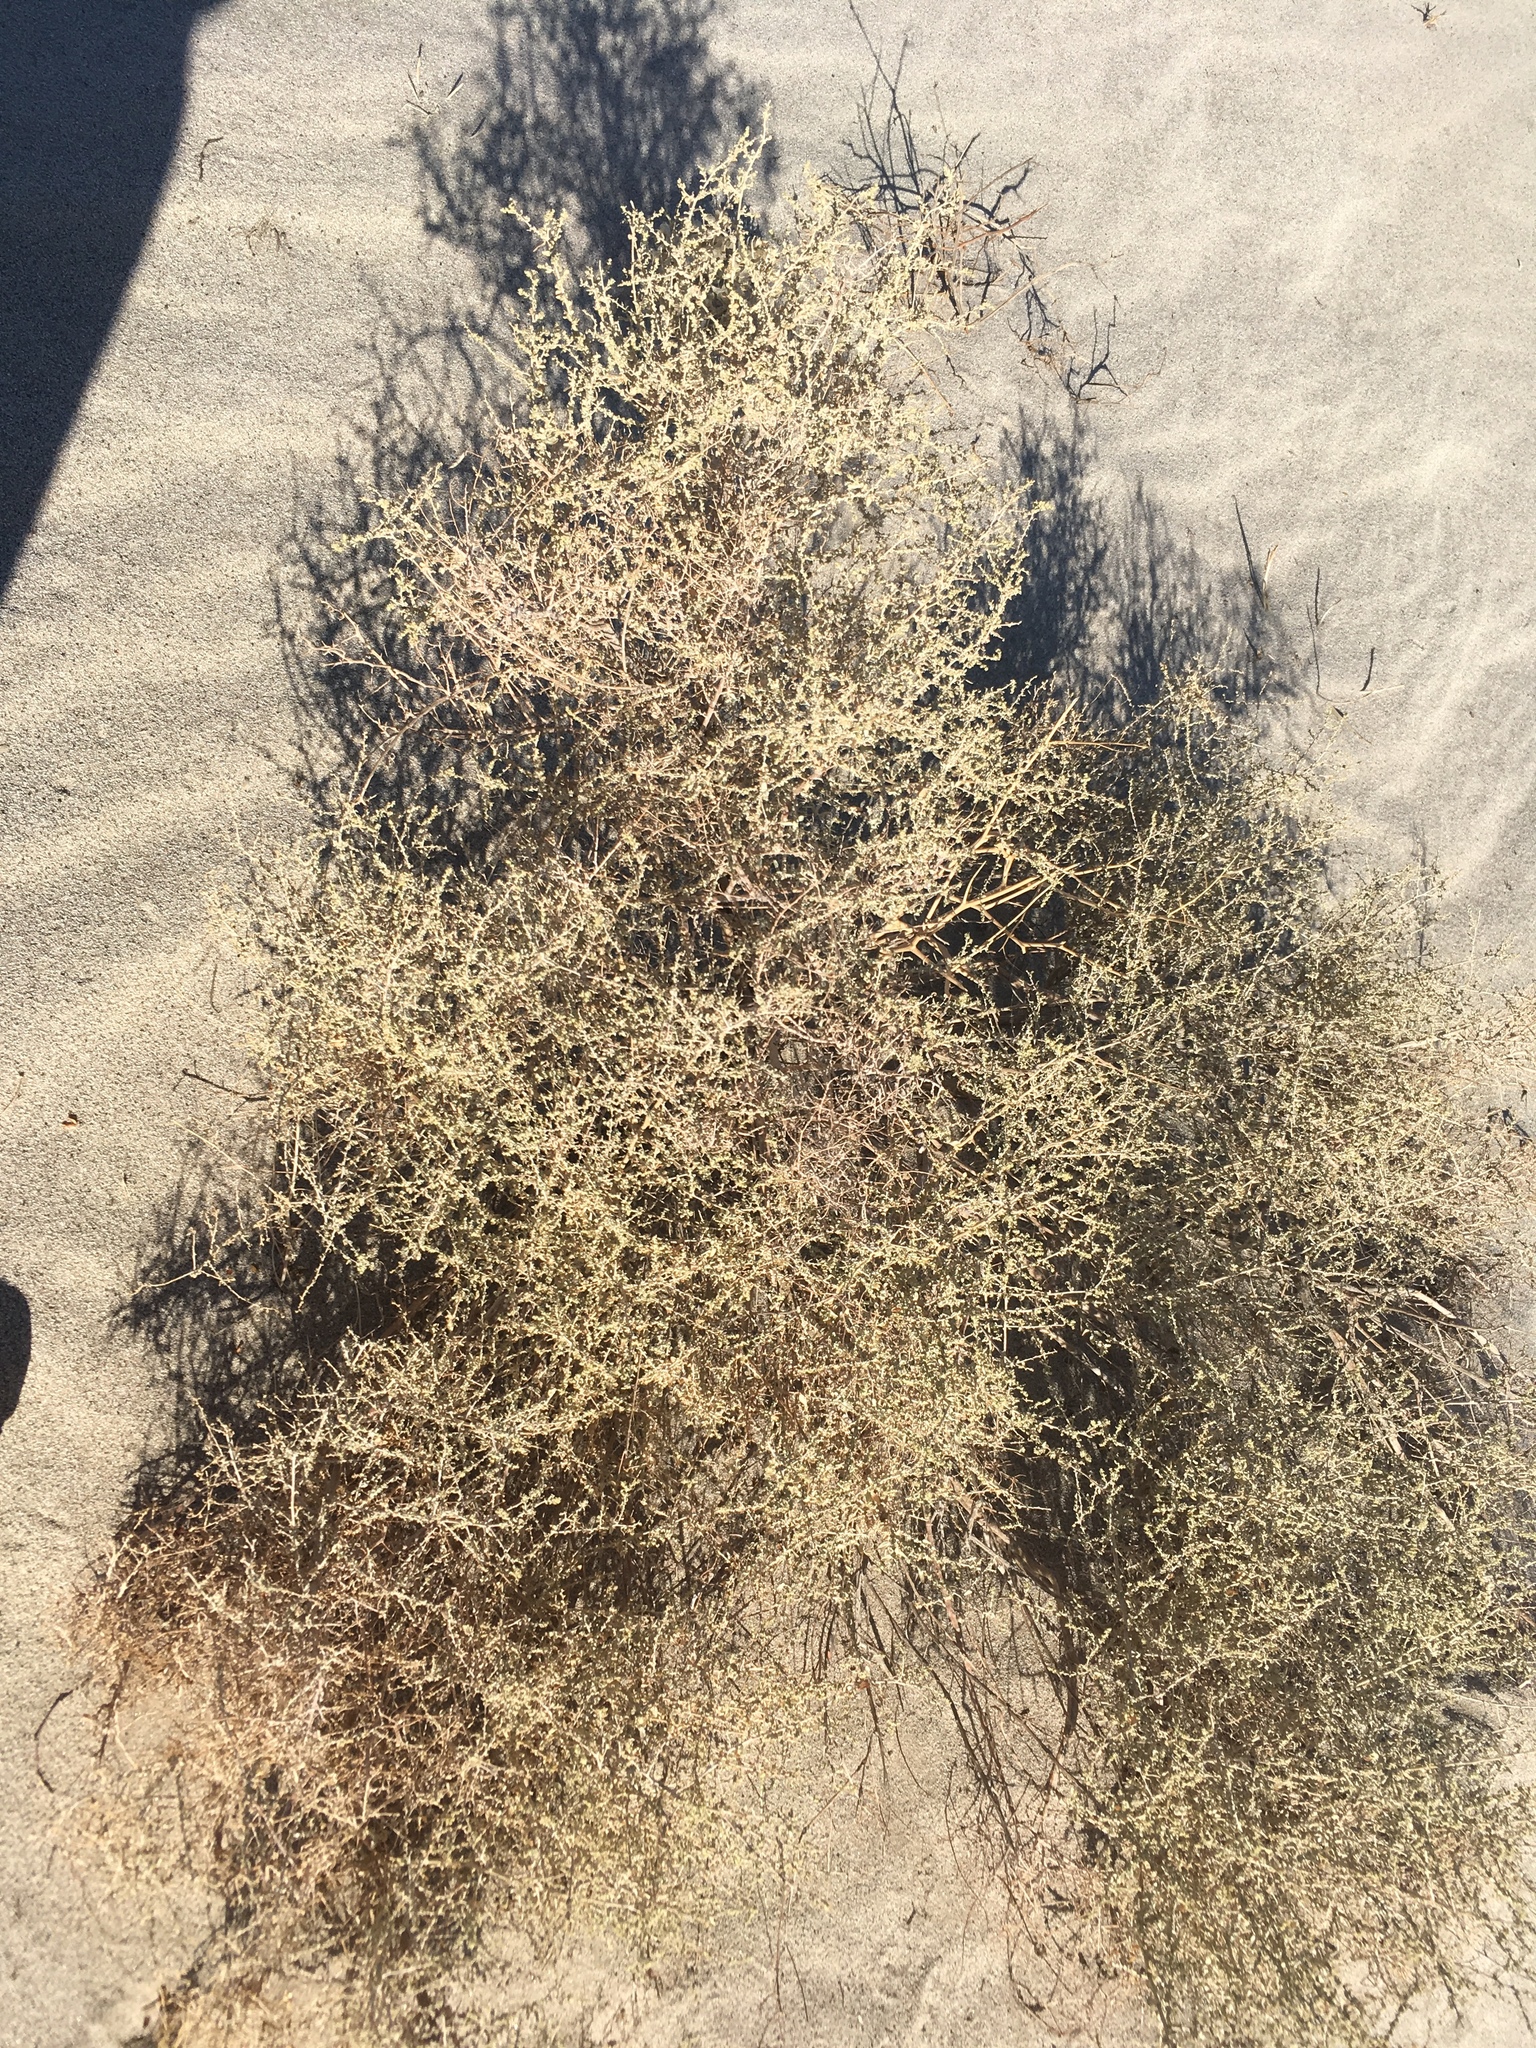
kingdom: Plantae
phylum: Tracheophyta
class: Magnoliopsida
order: Caryophyllales
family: Amaranthaceae
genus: Atriplex
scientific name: Atriplex polycarpa
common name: Desert saltbush
